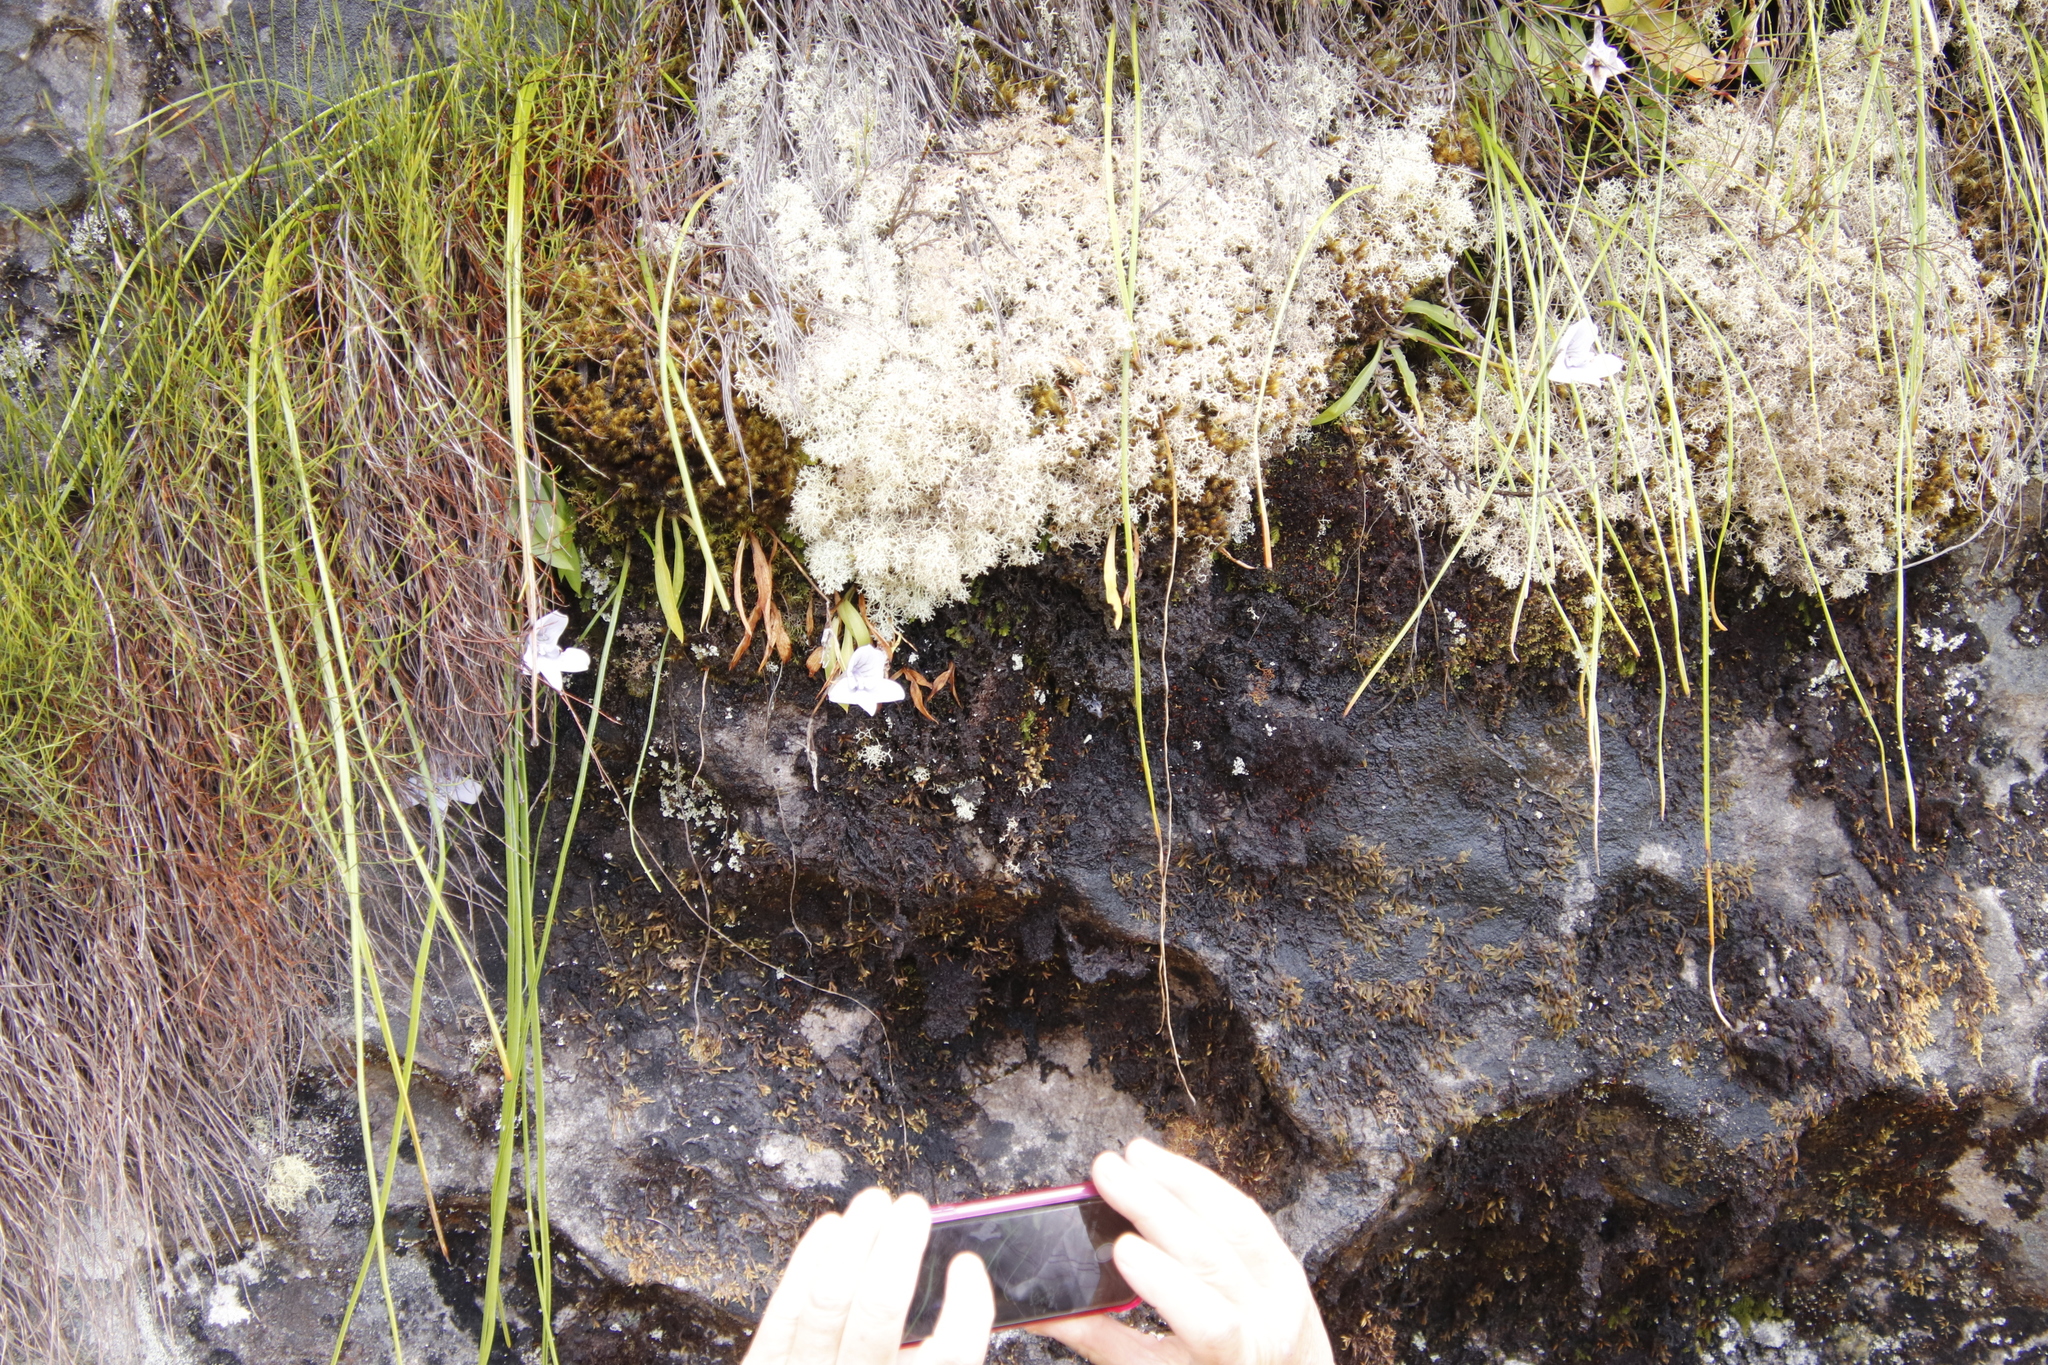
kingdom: Fungi
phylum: Ascomycota
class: Lecanoromycetes
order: Lecanorales
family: Cladoniaceae
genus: Cladonia
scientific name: Cladonia confusa
